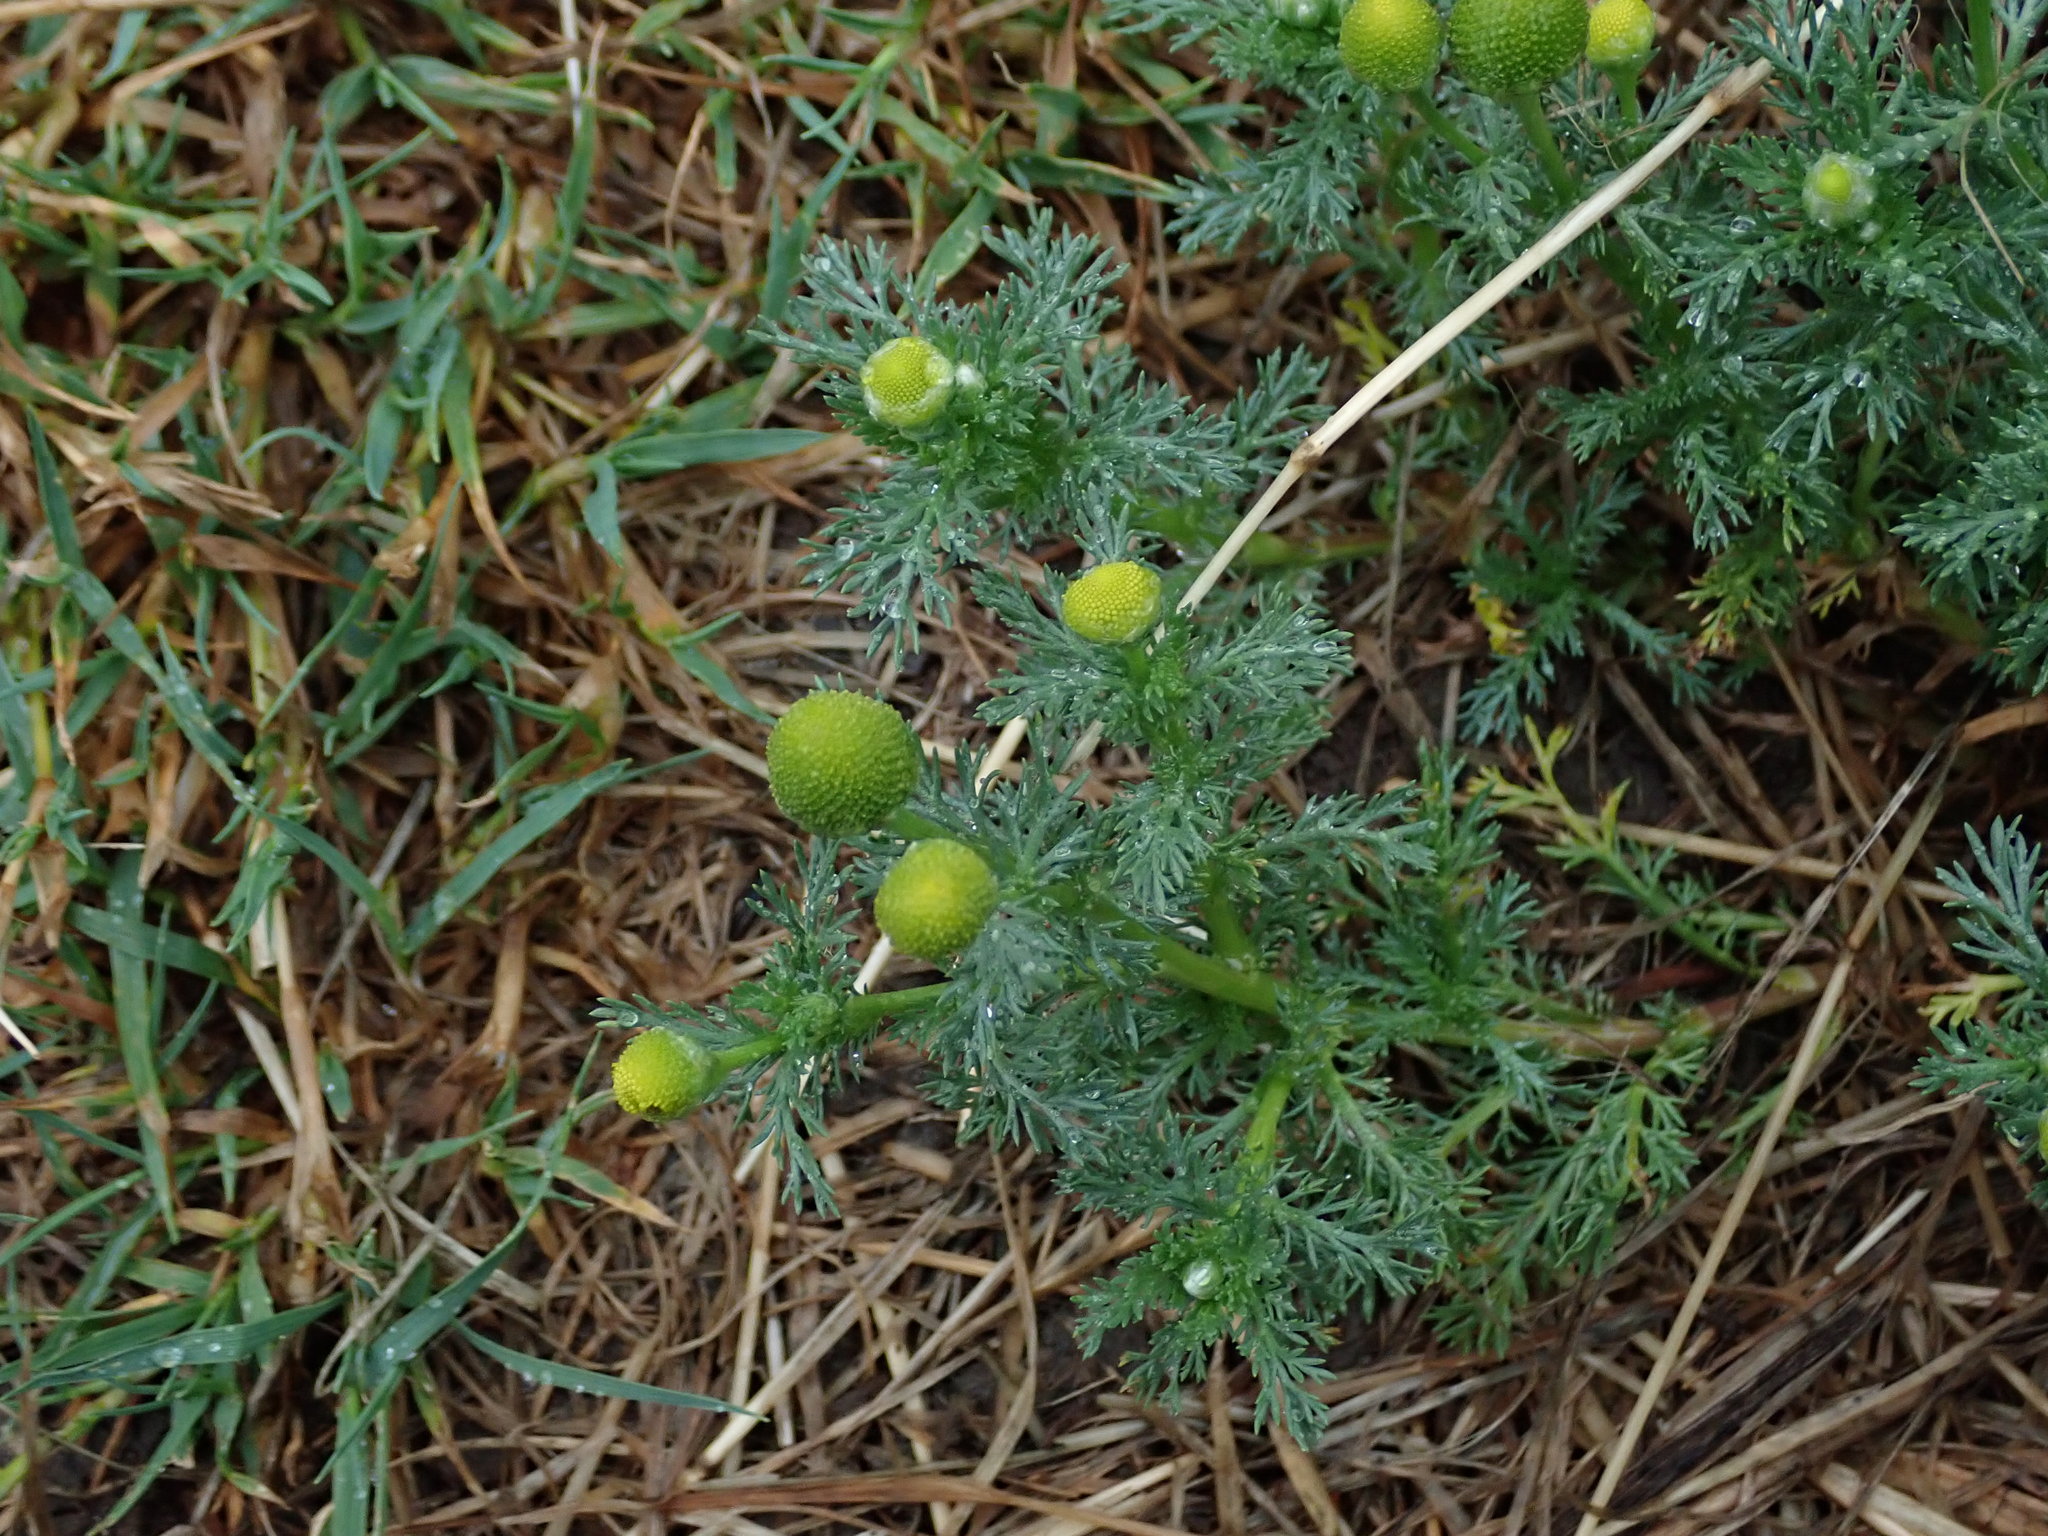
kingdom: Plantae
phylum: Tracheophyta
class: Magnoliopsida
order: Asterales
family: Asteraceae
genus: Matricaria
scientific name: Matricaria discoidea
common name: Disc mayweed
